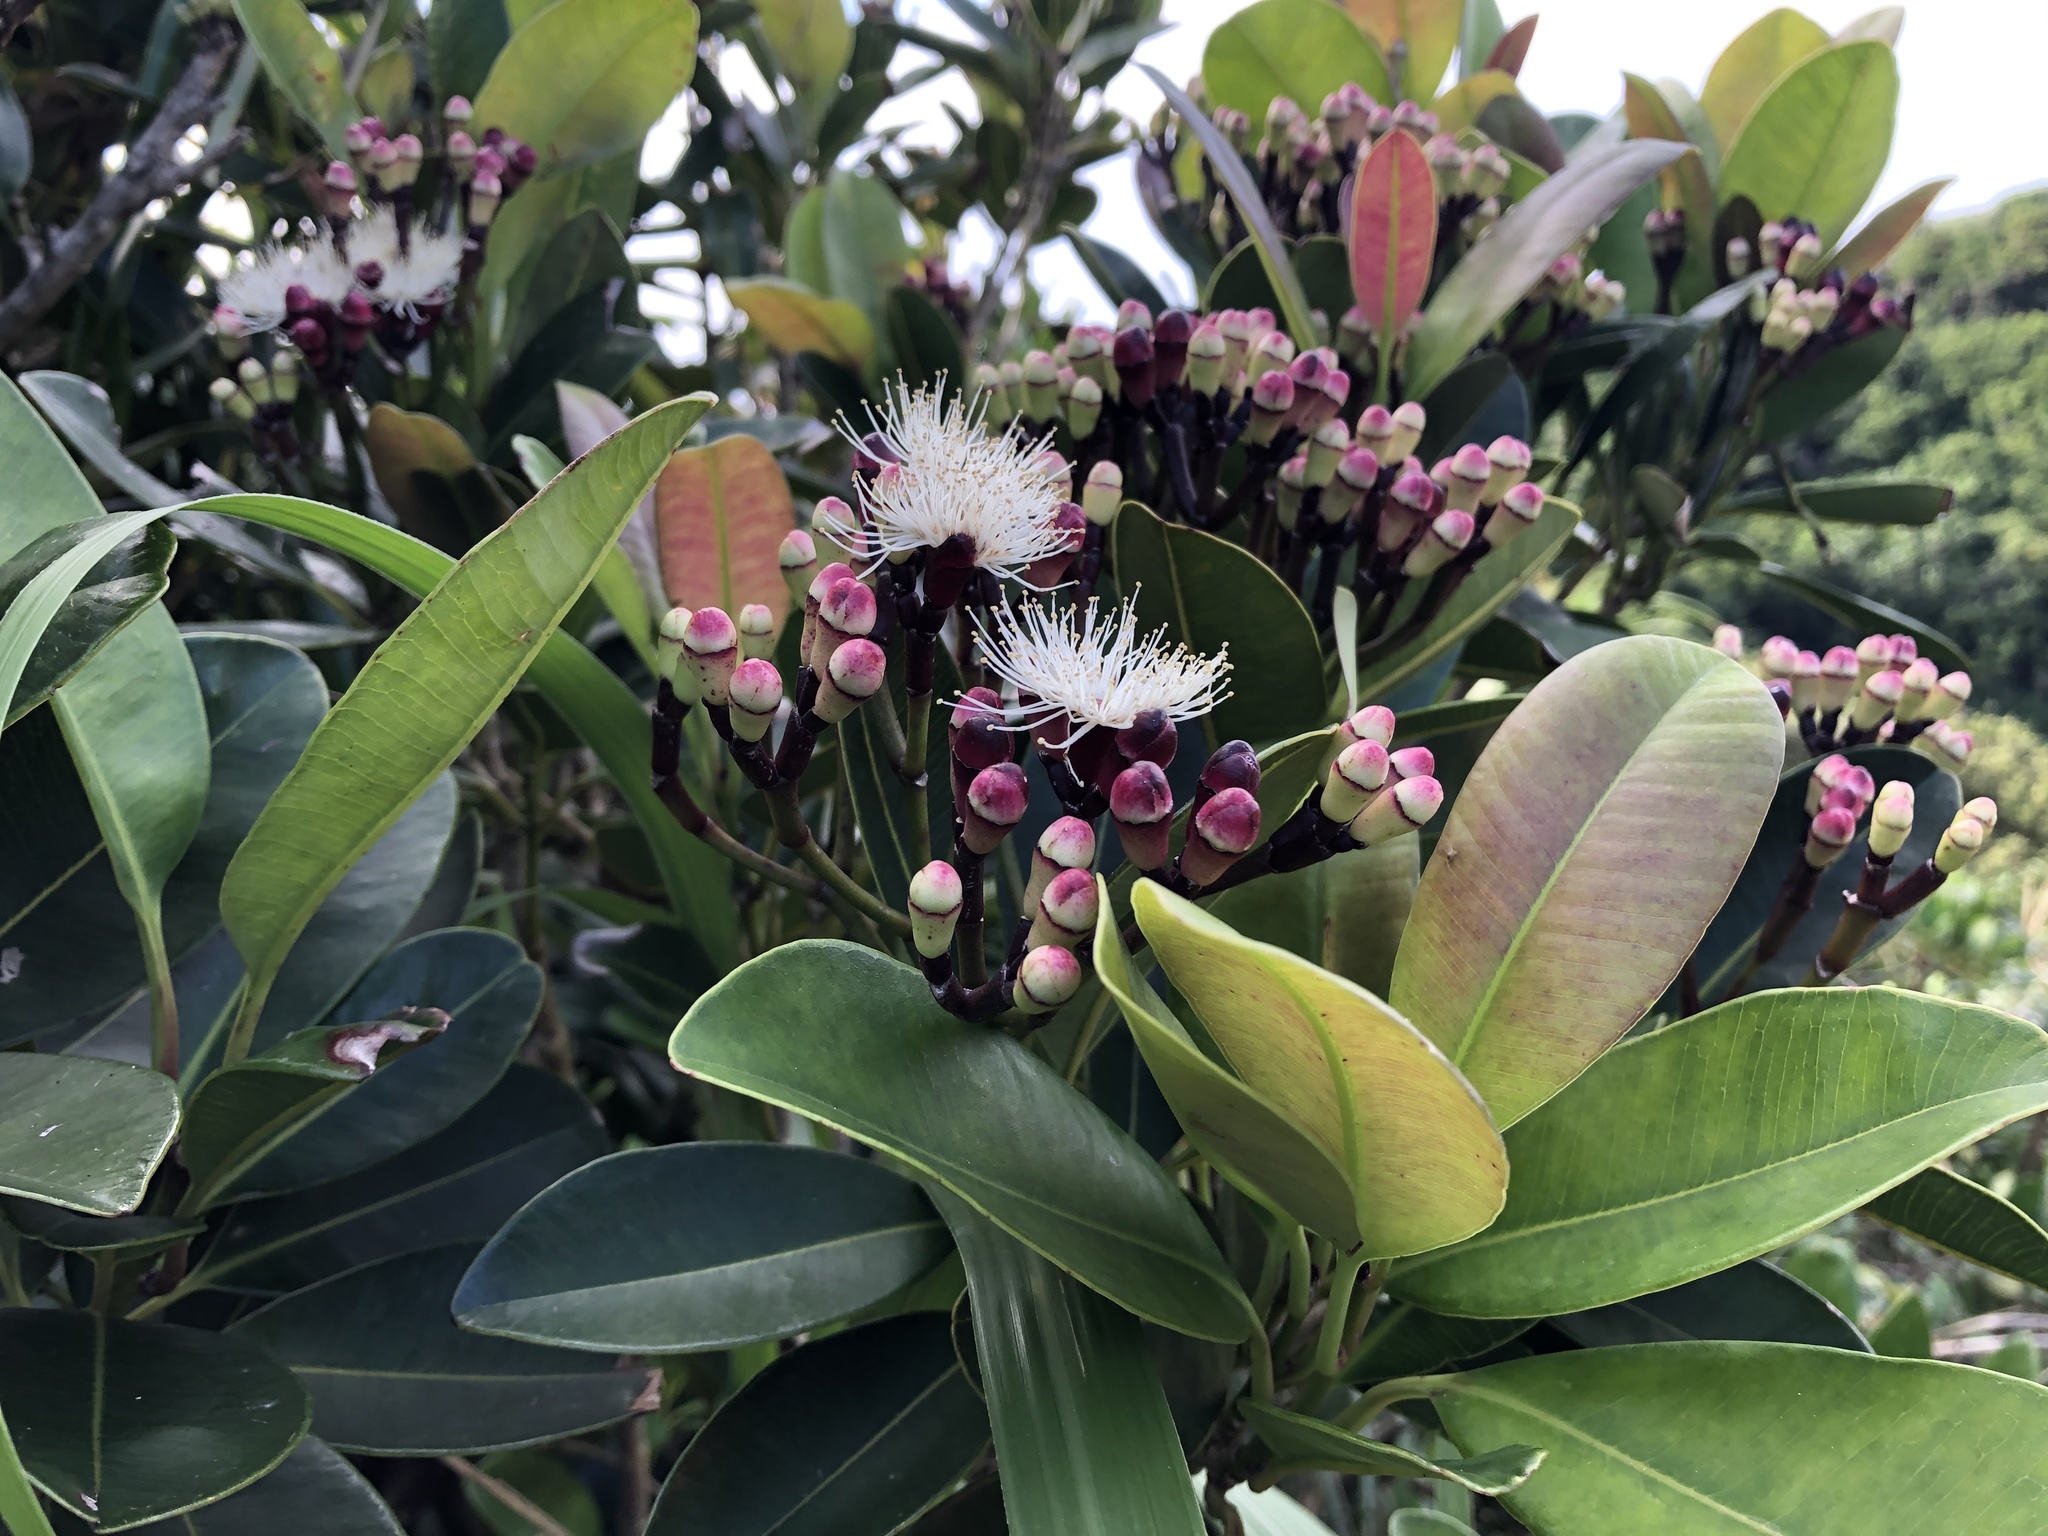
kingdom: Plantae
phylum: Tracheophyta
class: Magnoliopsida
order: Myrtales
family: Myrtaceae
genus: Syzygium
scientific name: Syzygium densinervium
